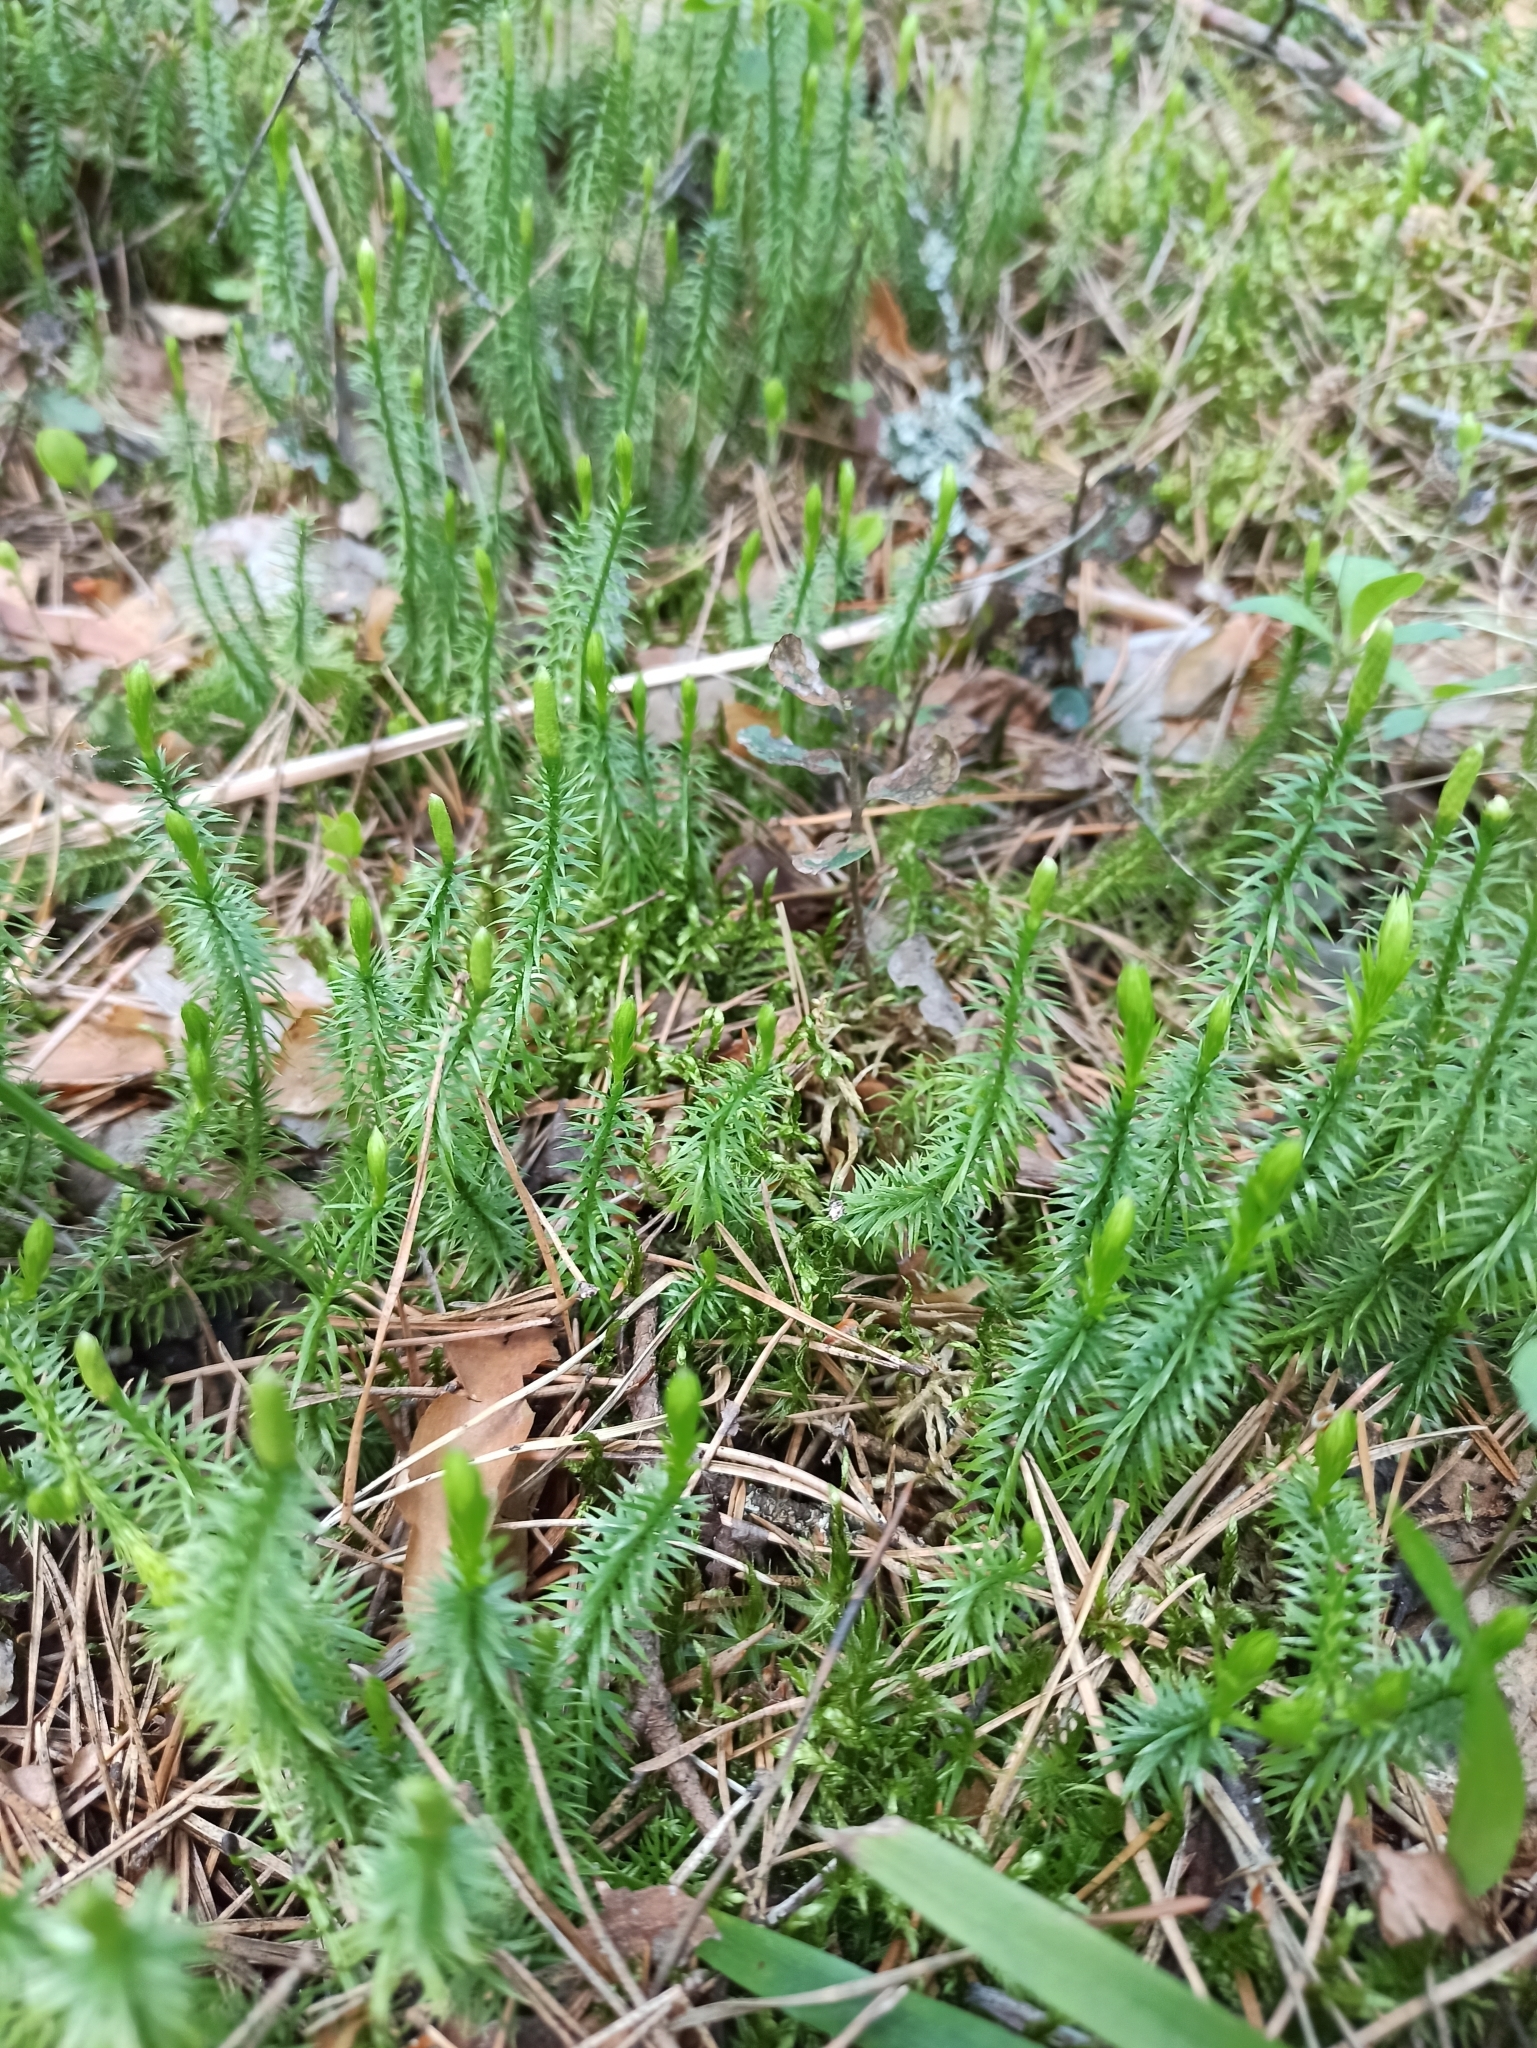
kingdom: Plantae
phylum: Tracheophyta
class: Lycopodiopsida
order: Lycopodiales
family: Lycopodiaceae
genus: Spinulum
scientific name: Spinulum annotinum
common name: Interrupted club-moss
